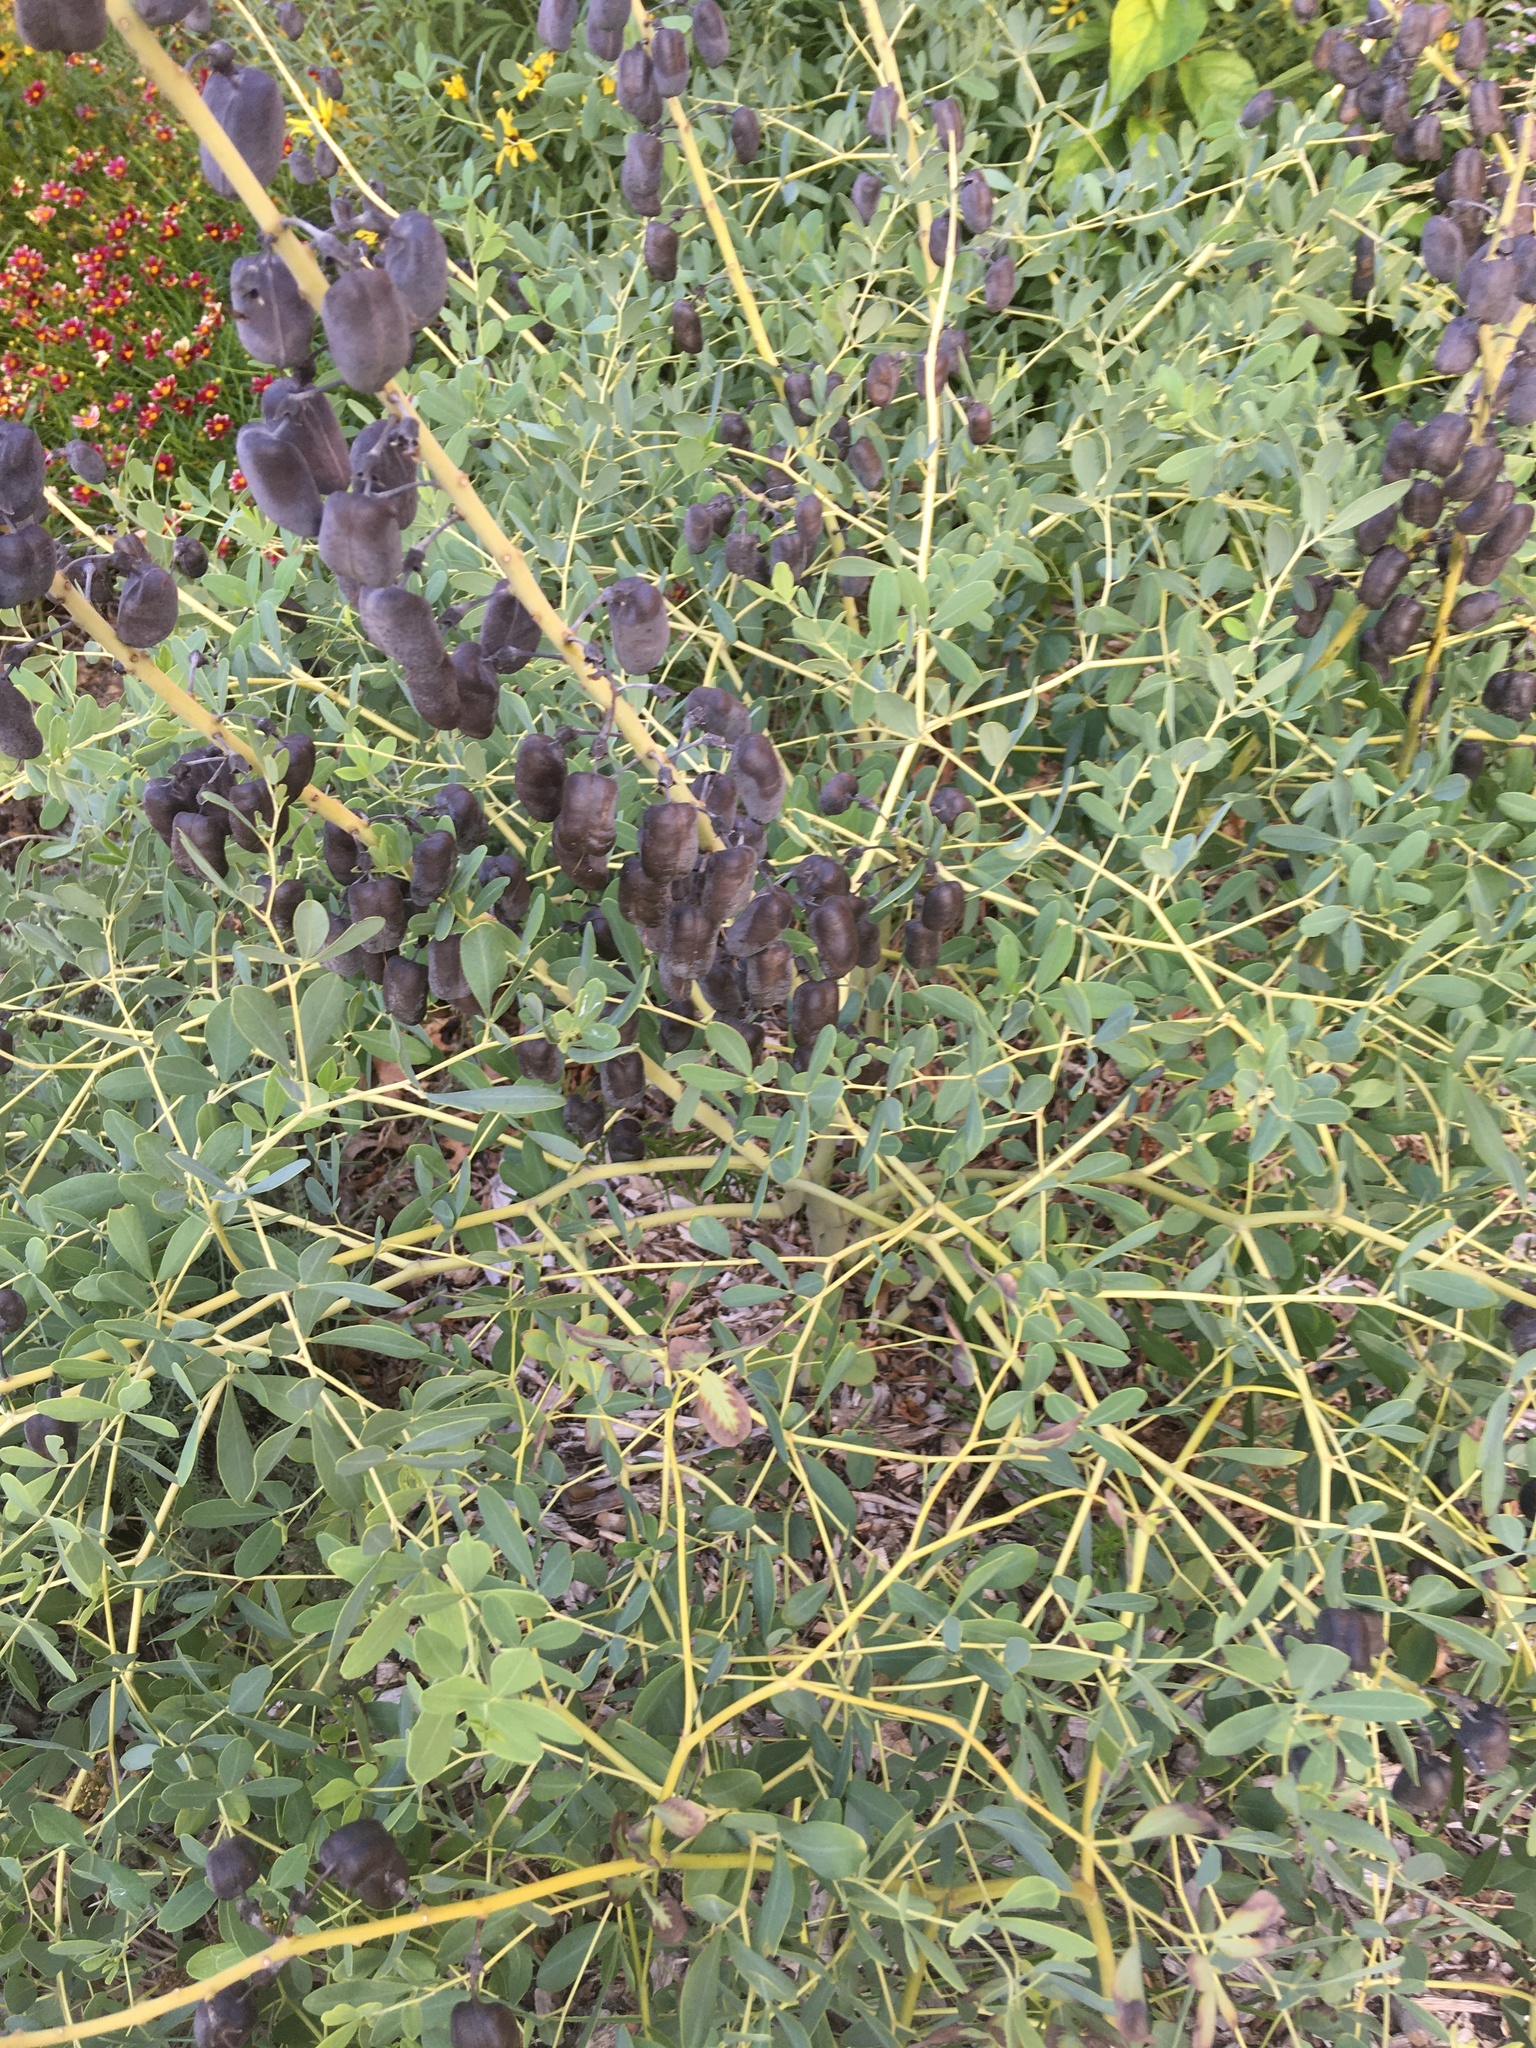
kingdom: Plantae
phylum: Tracheophyta
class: Magnoliopsida
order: Fabales
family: Fabaceae
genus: Baptisia
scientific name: Baptisia alba
